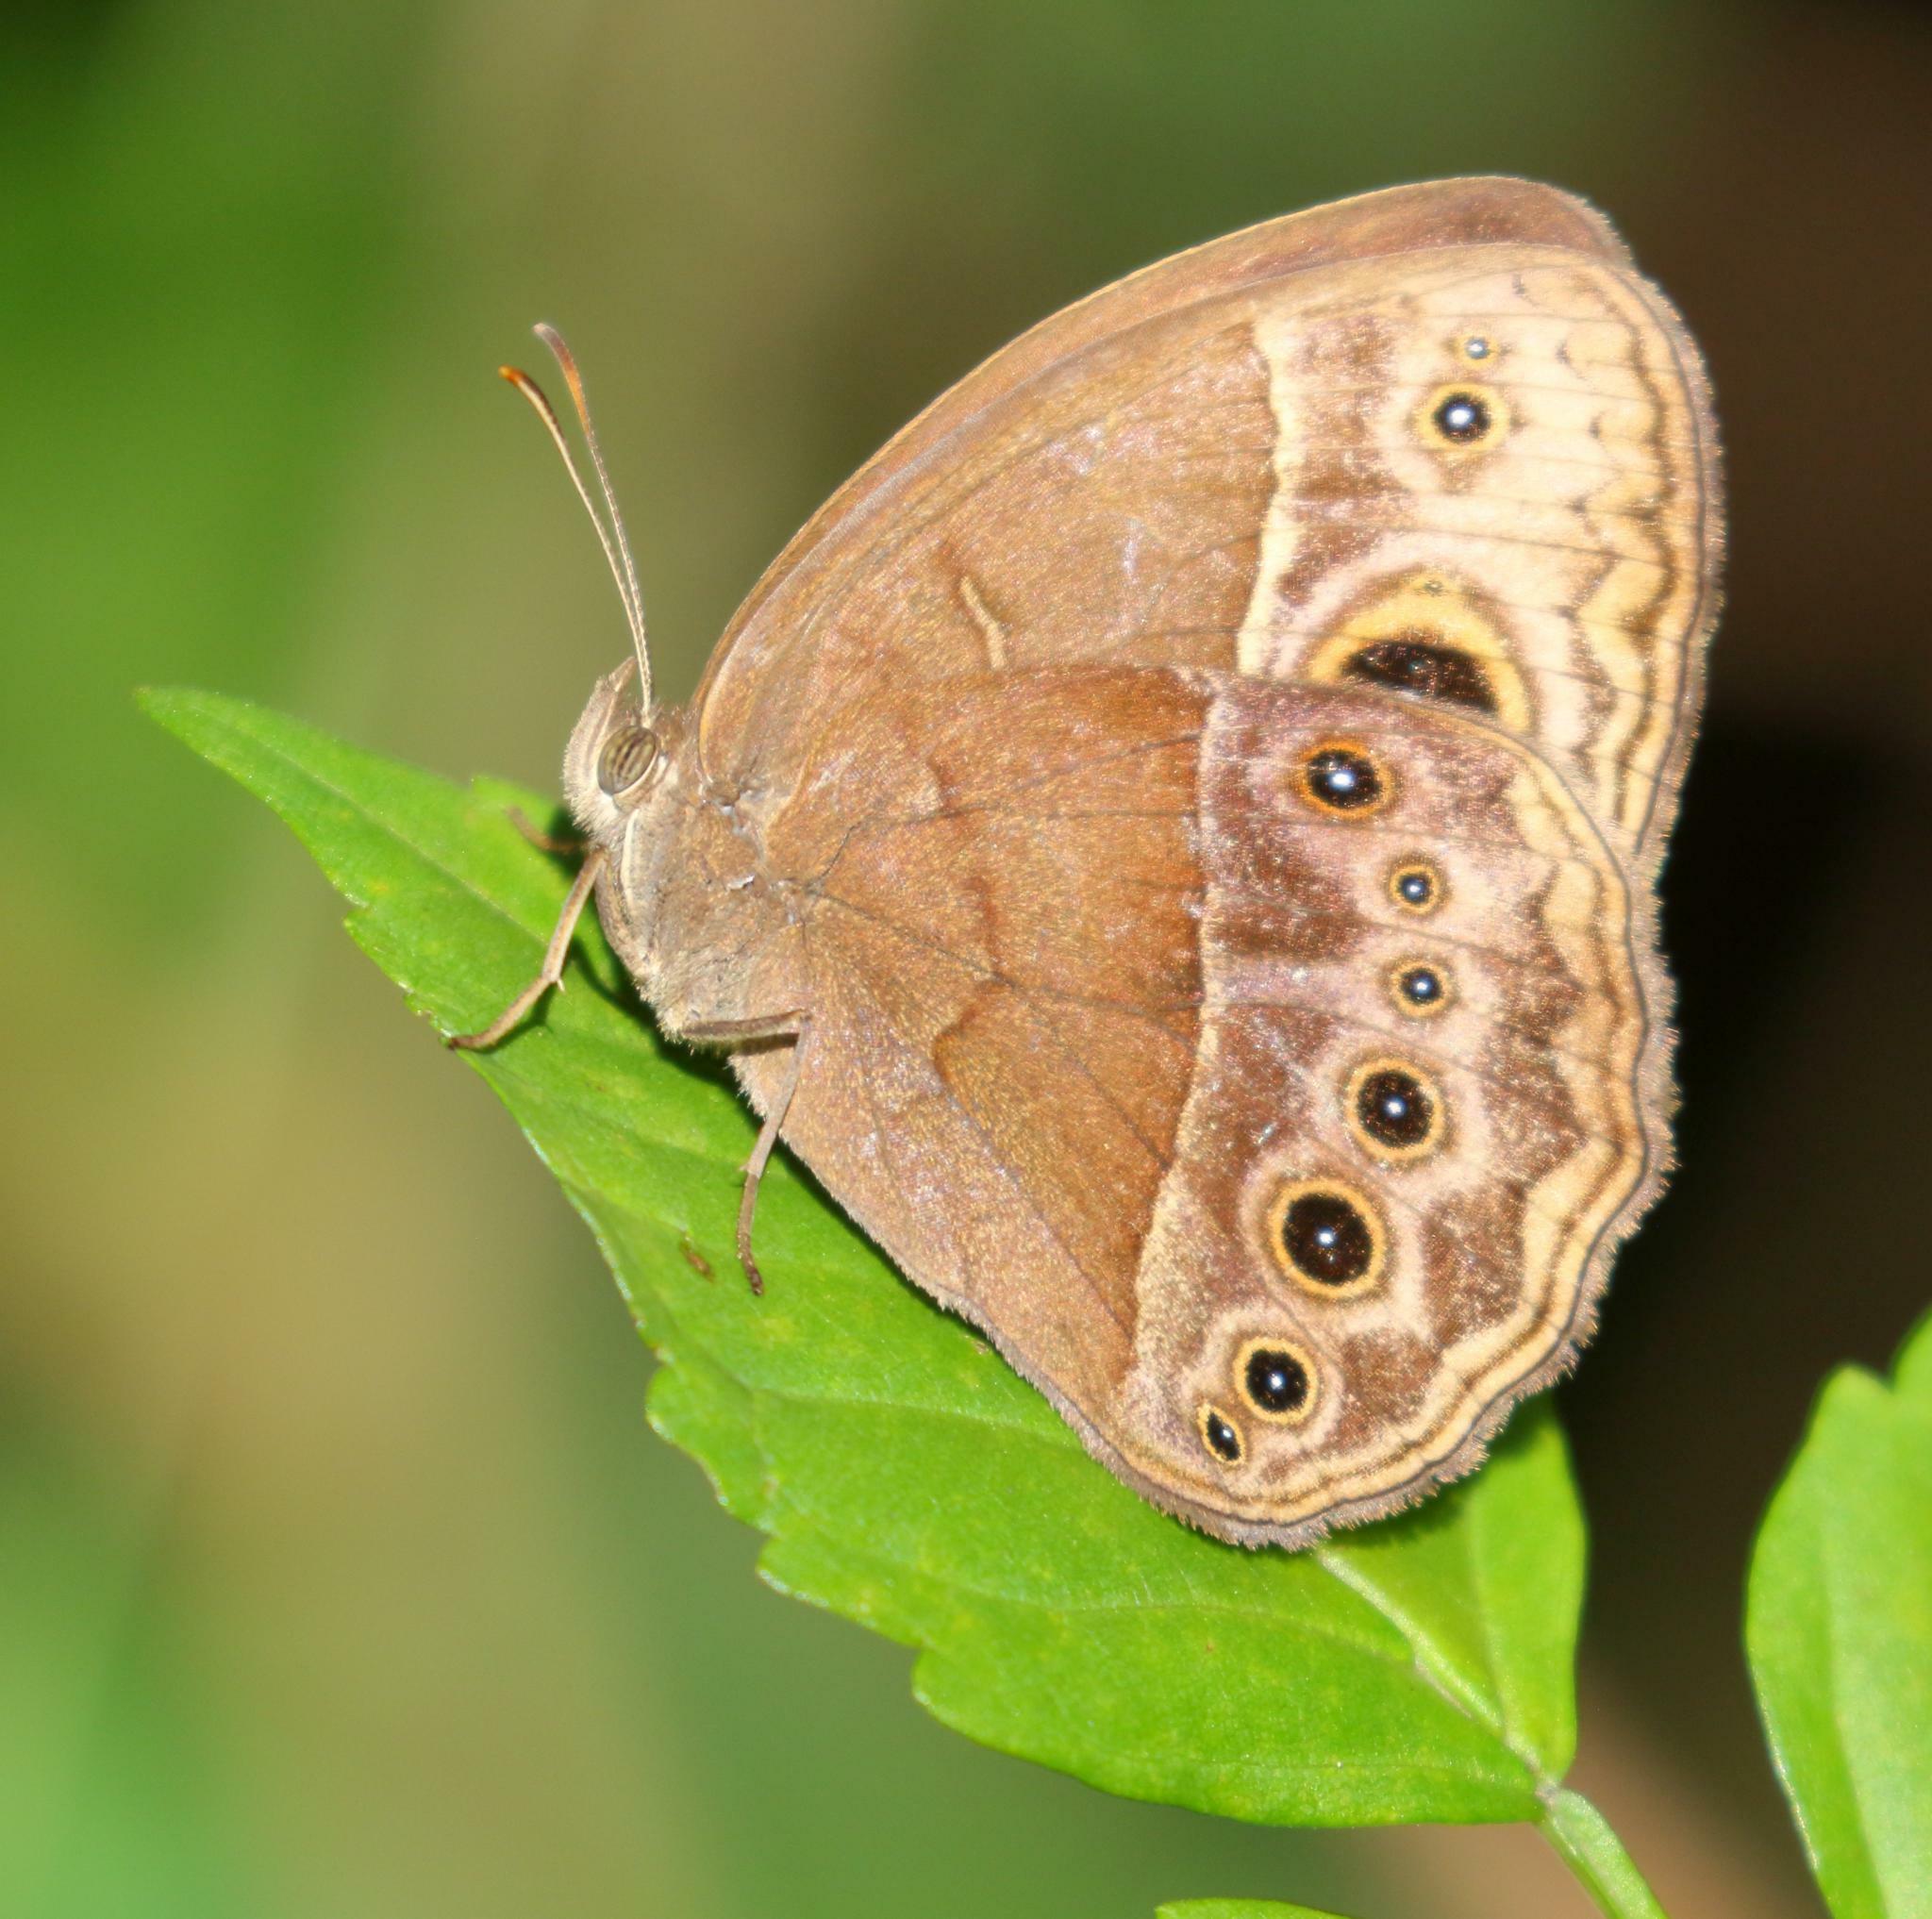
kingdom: Animalia
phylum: Arthropoda
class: Insecta
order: Lepidoptera
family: Nymphalidae
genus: Mycalesis
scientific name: Mycalesis rhacotis
